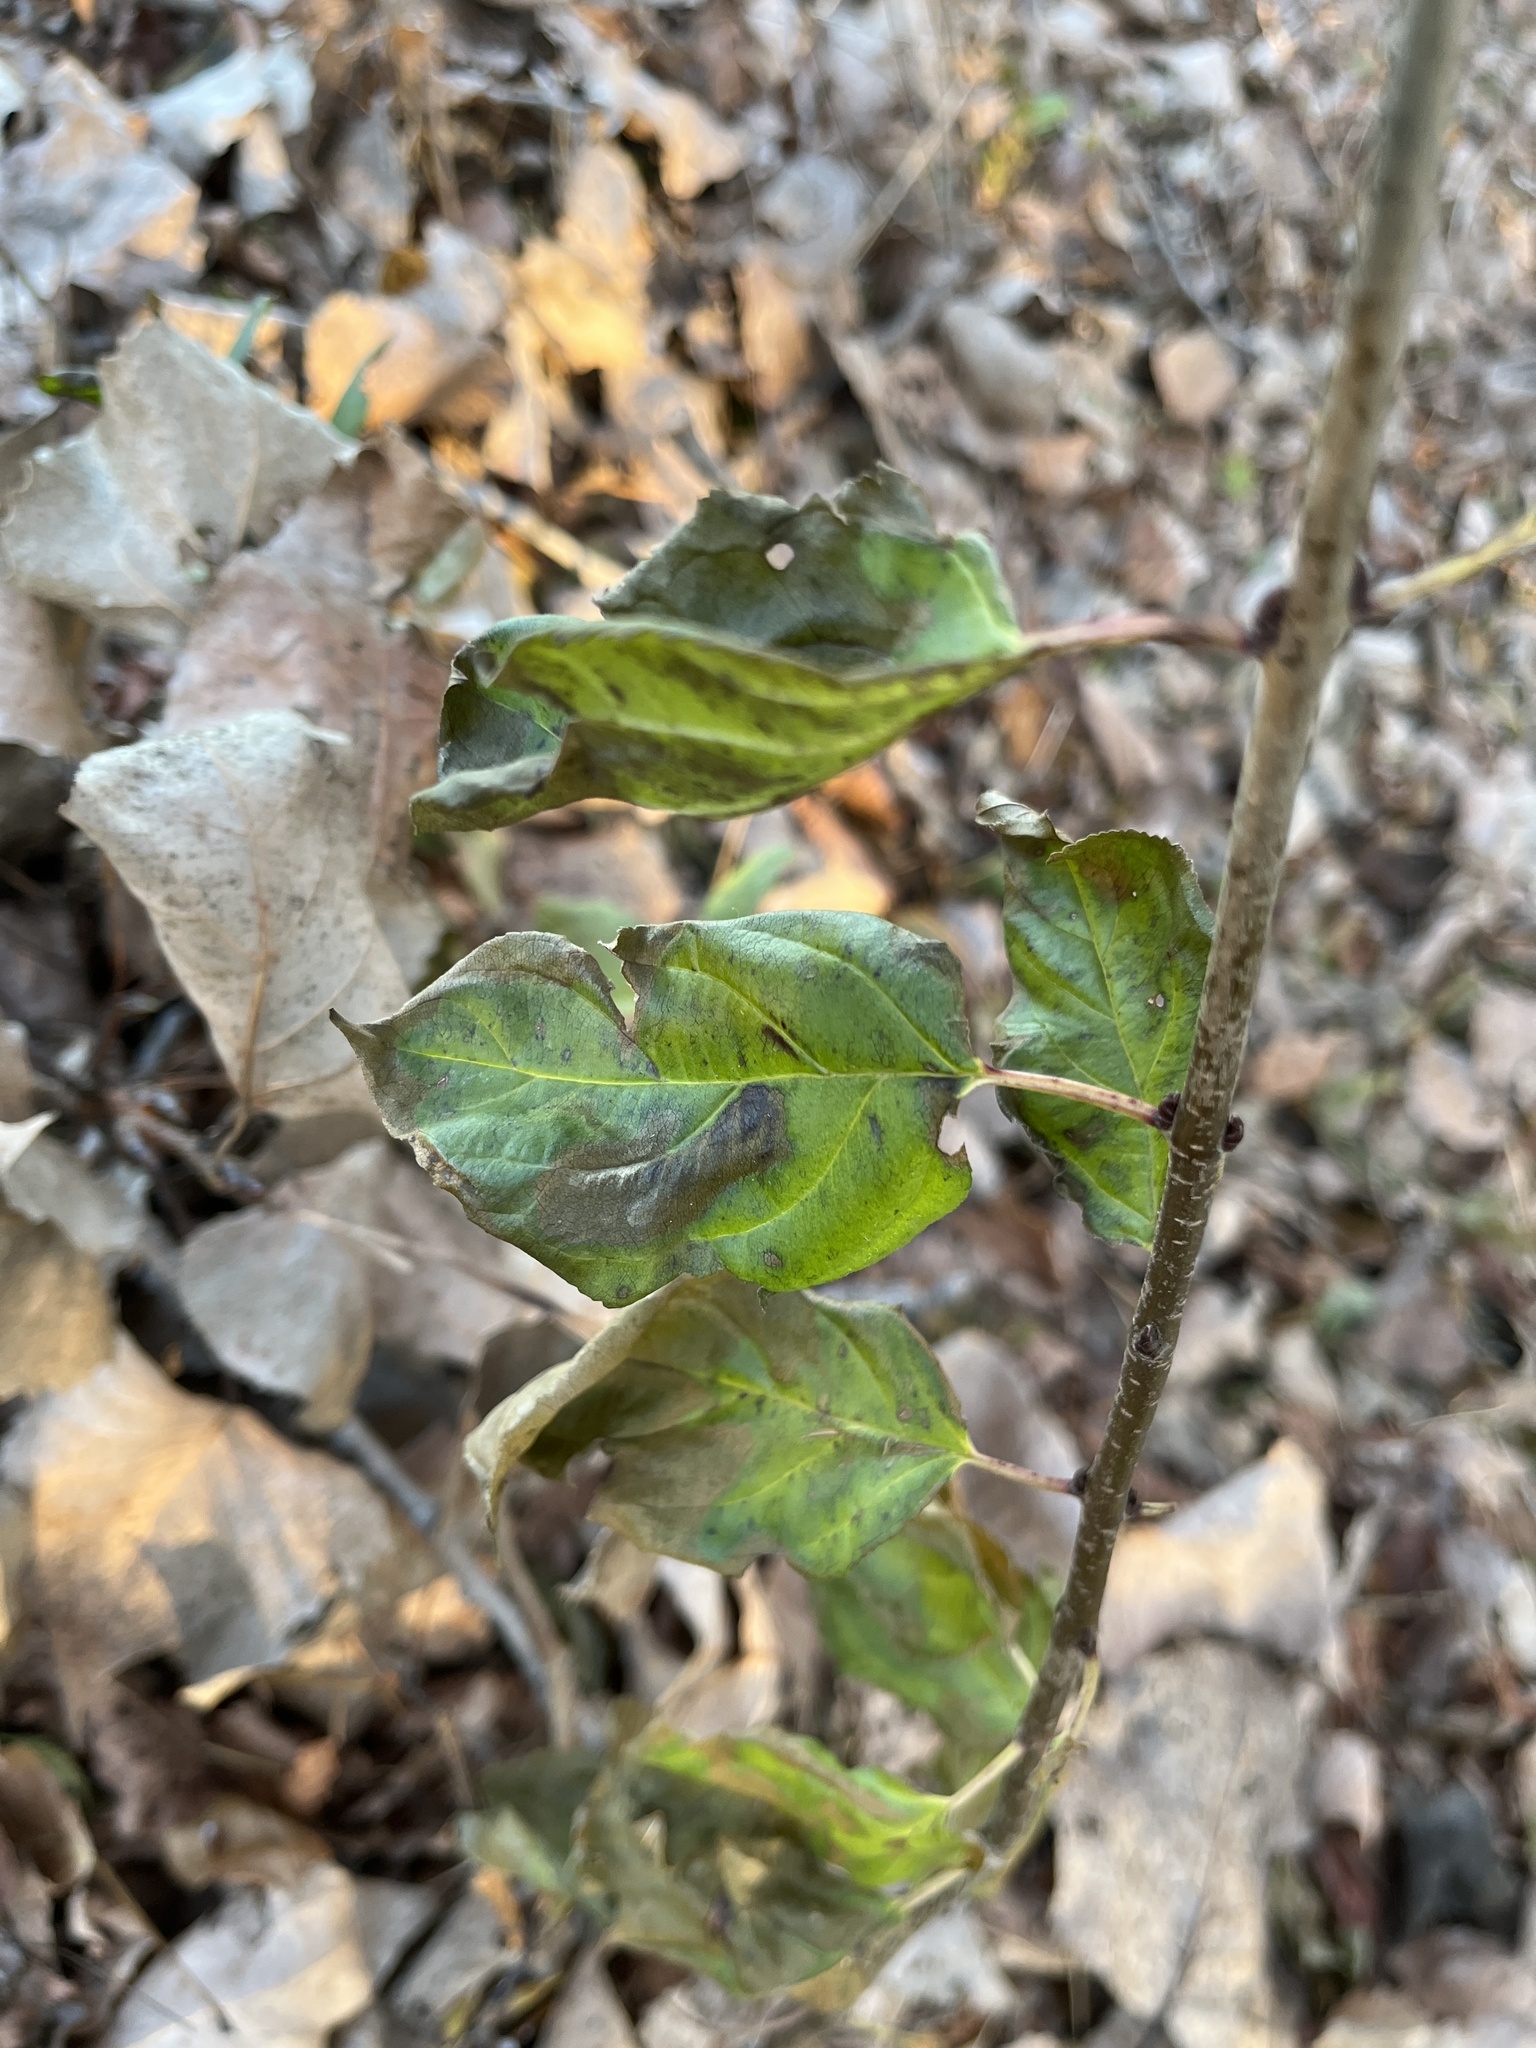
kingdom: Plantae
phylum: Tracheophyta
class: Magnoliopsida
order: Rosales
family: Rhamnaceae
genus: Rhamnus
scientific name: Rhamnus cathartica
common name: Common buckthorn
